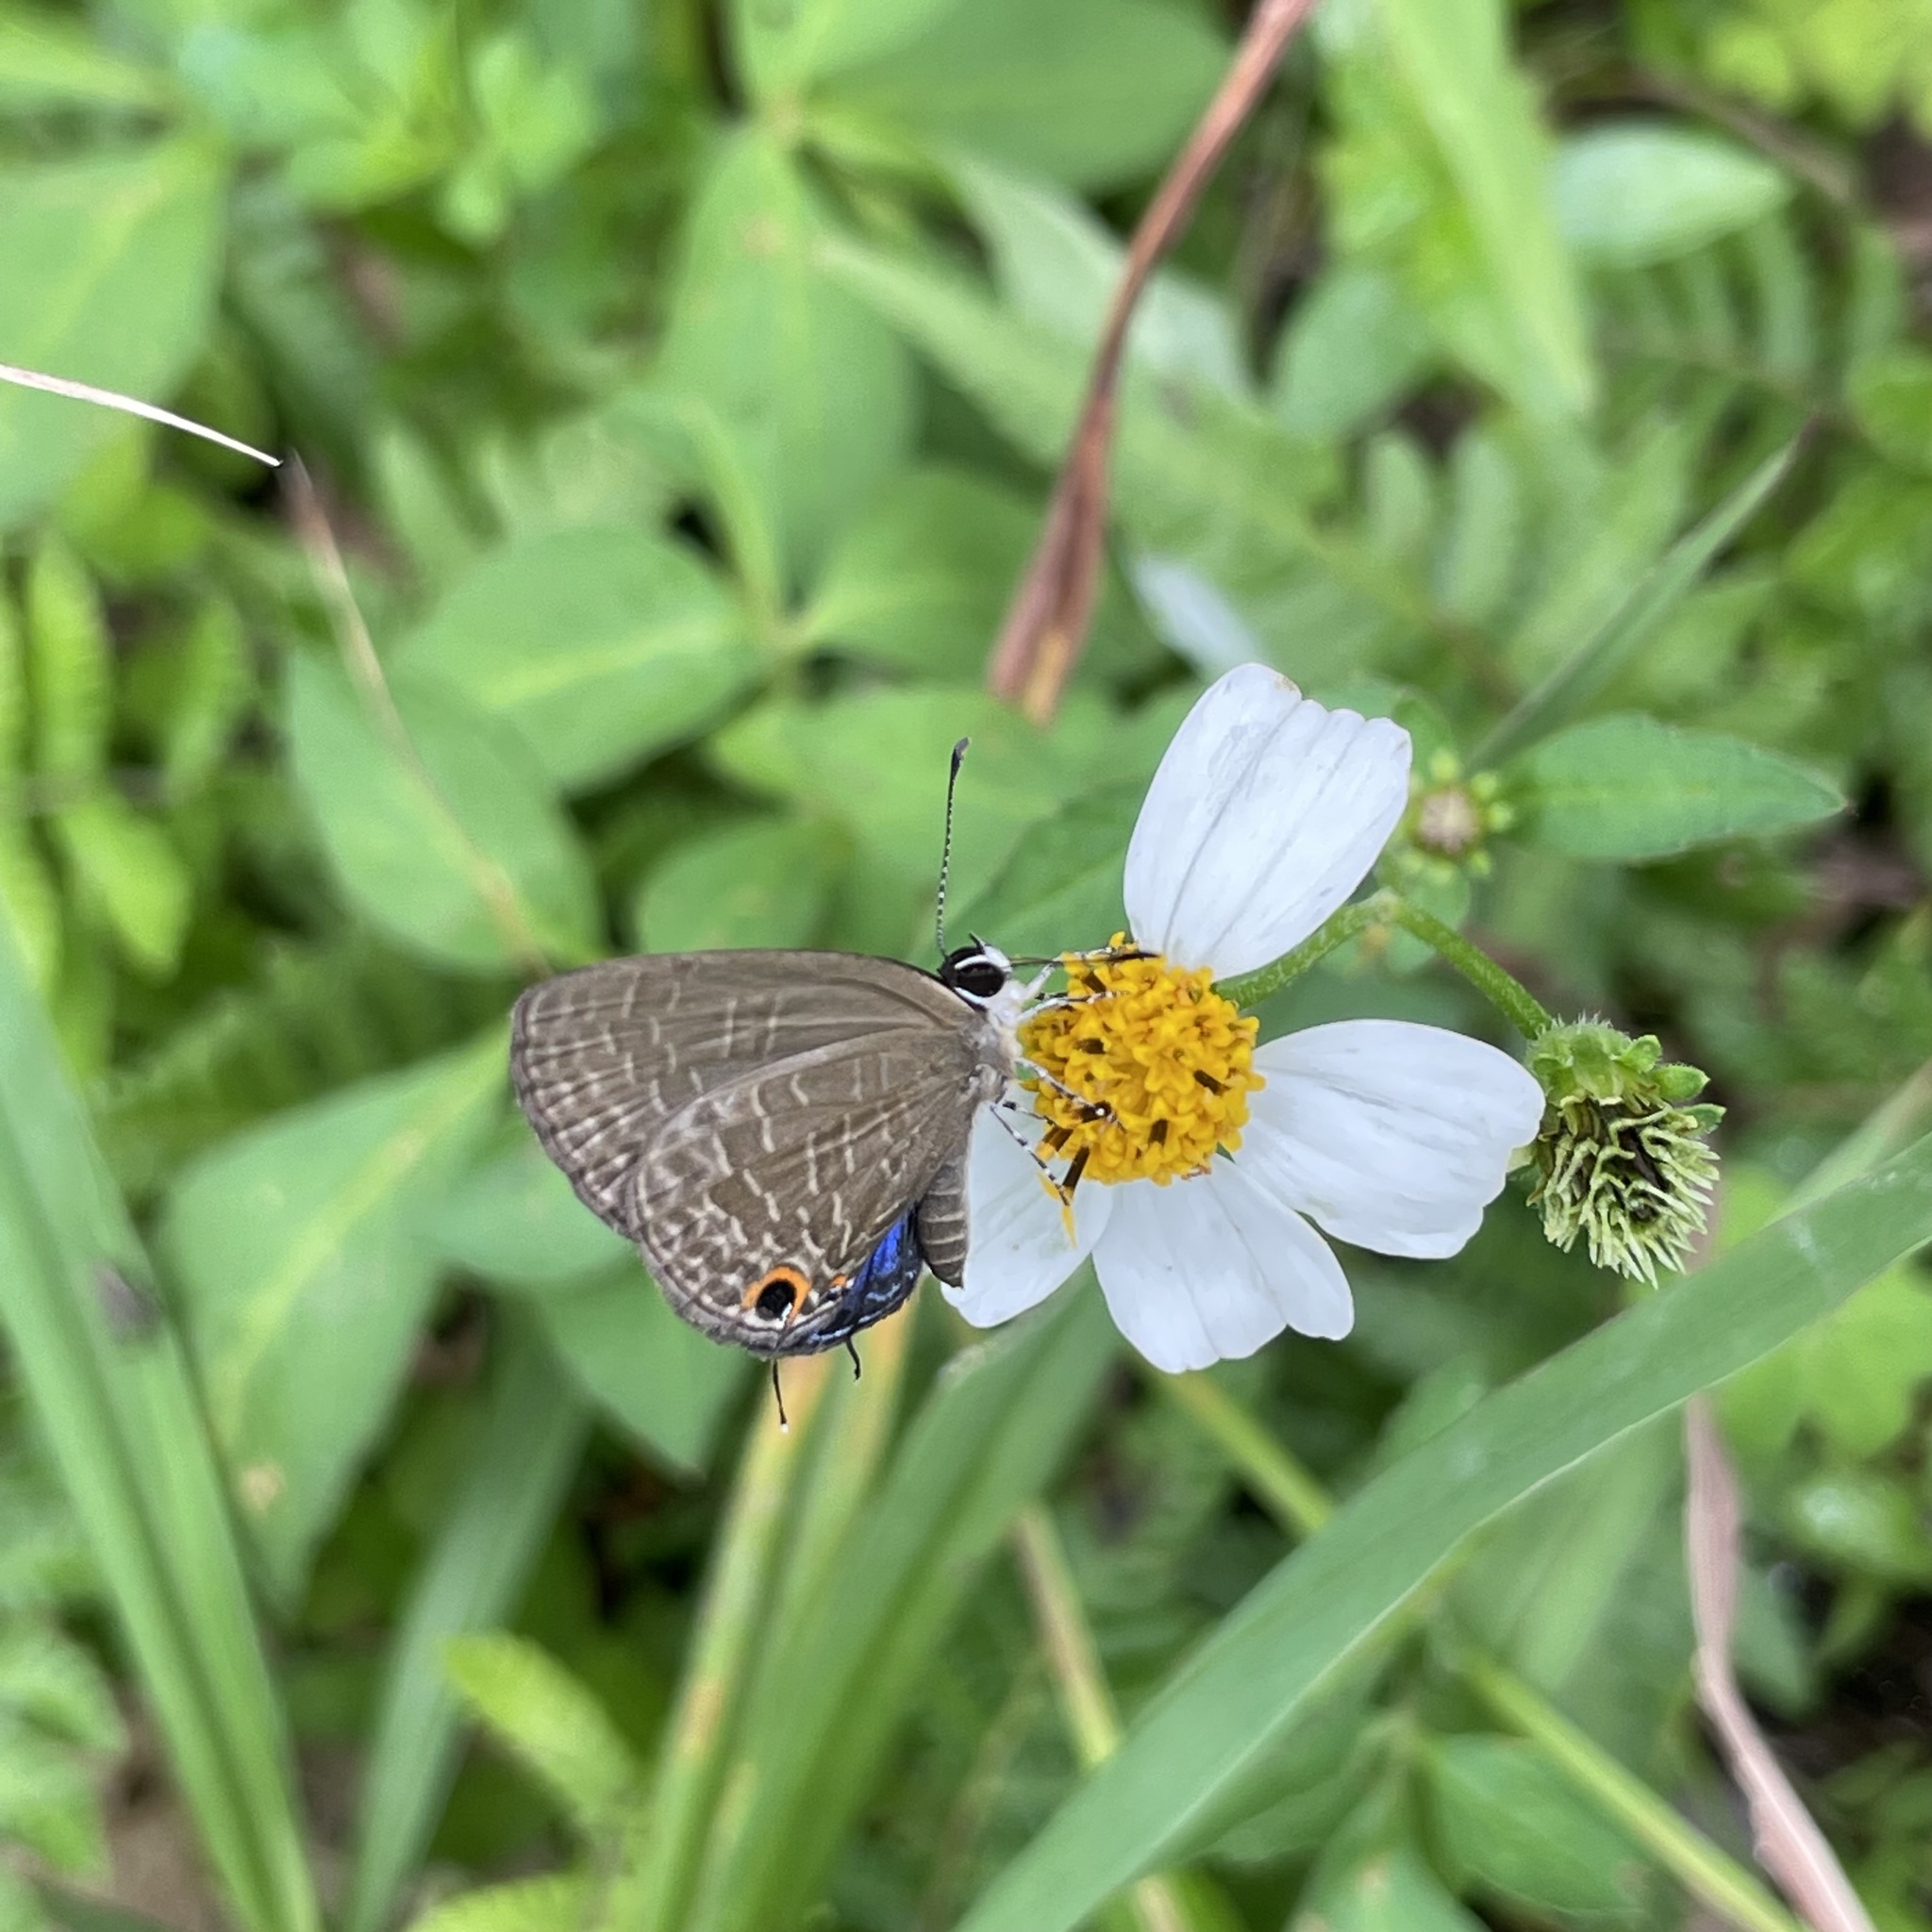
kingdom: Animalia
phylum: Arthropoda
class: Insecta
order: Lepidoptera
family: Lycaenidae
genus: Jamides
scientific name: Jamides bochus
